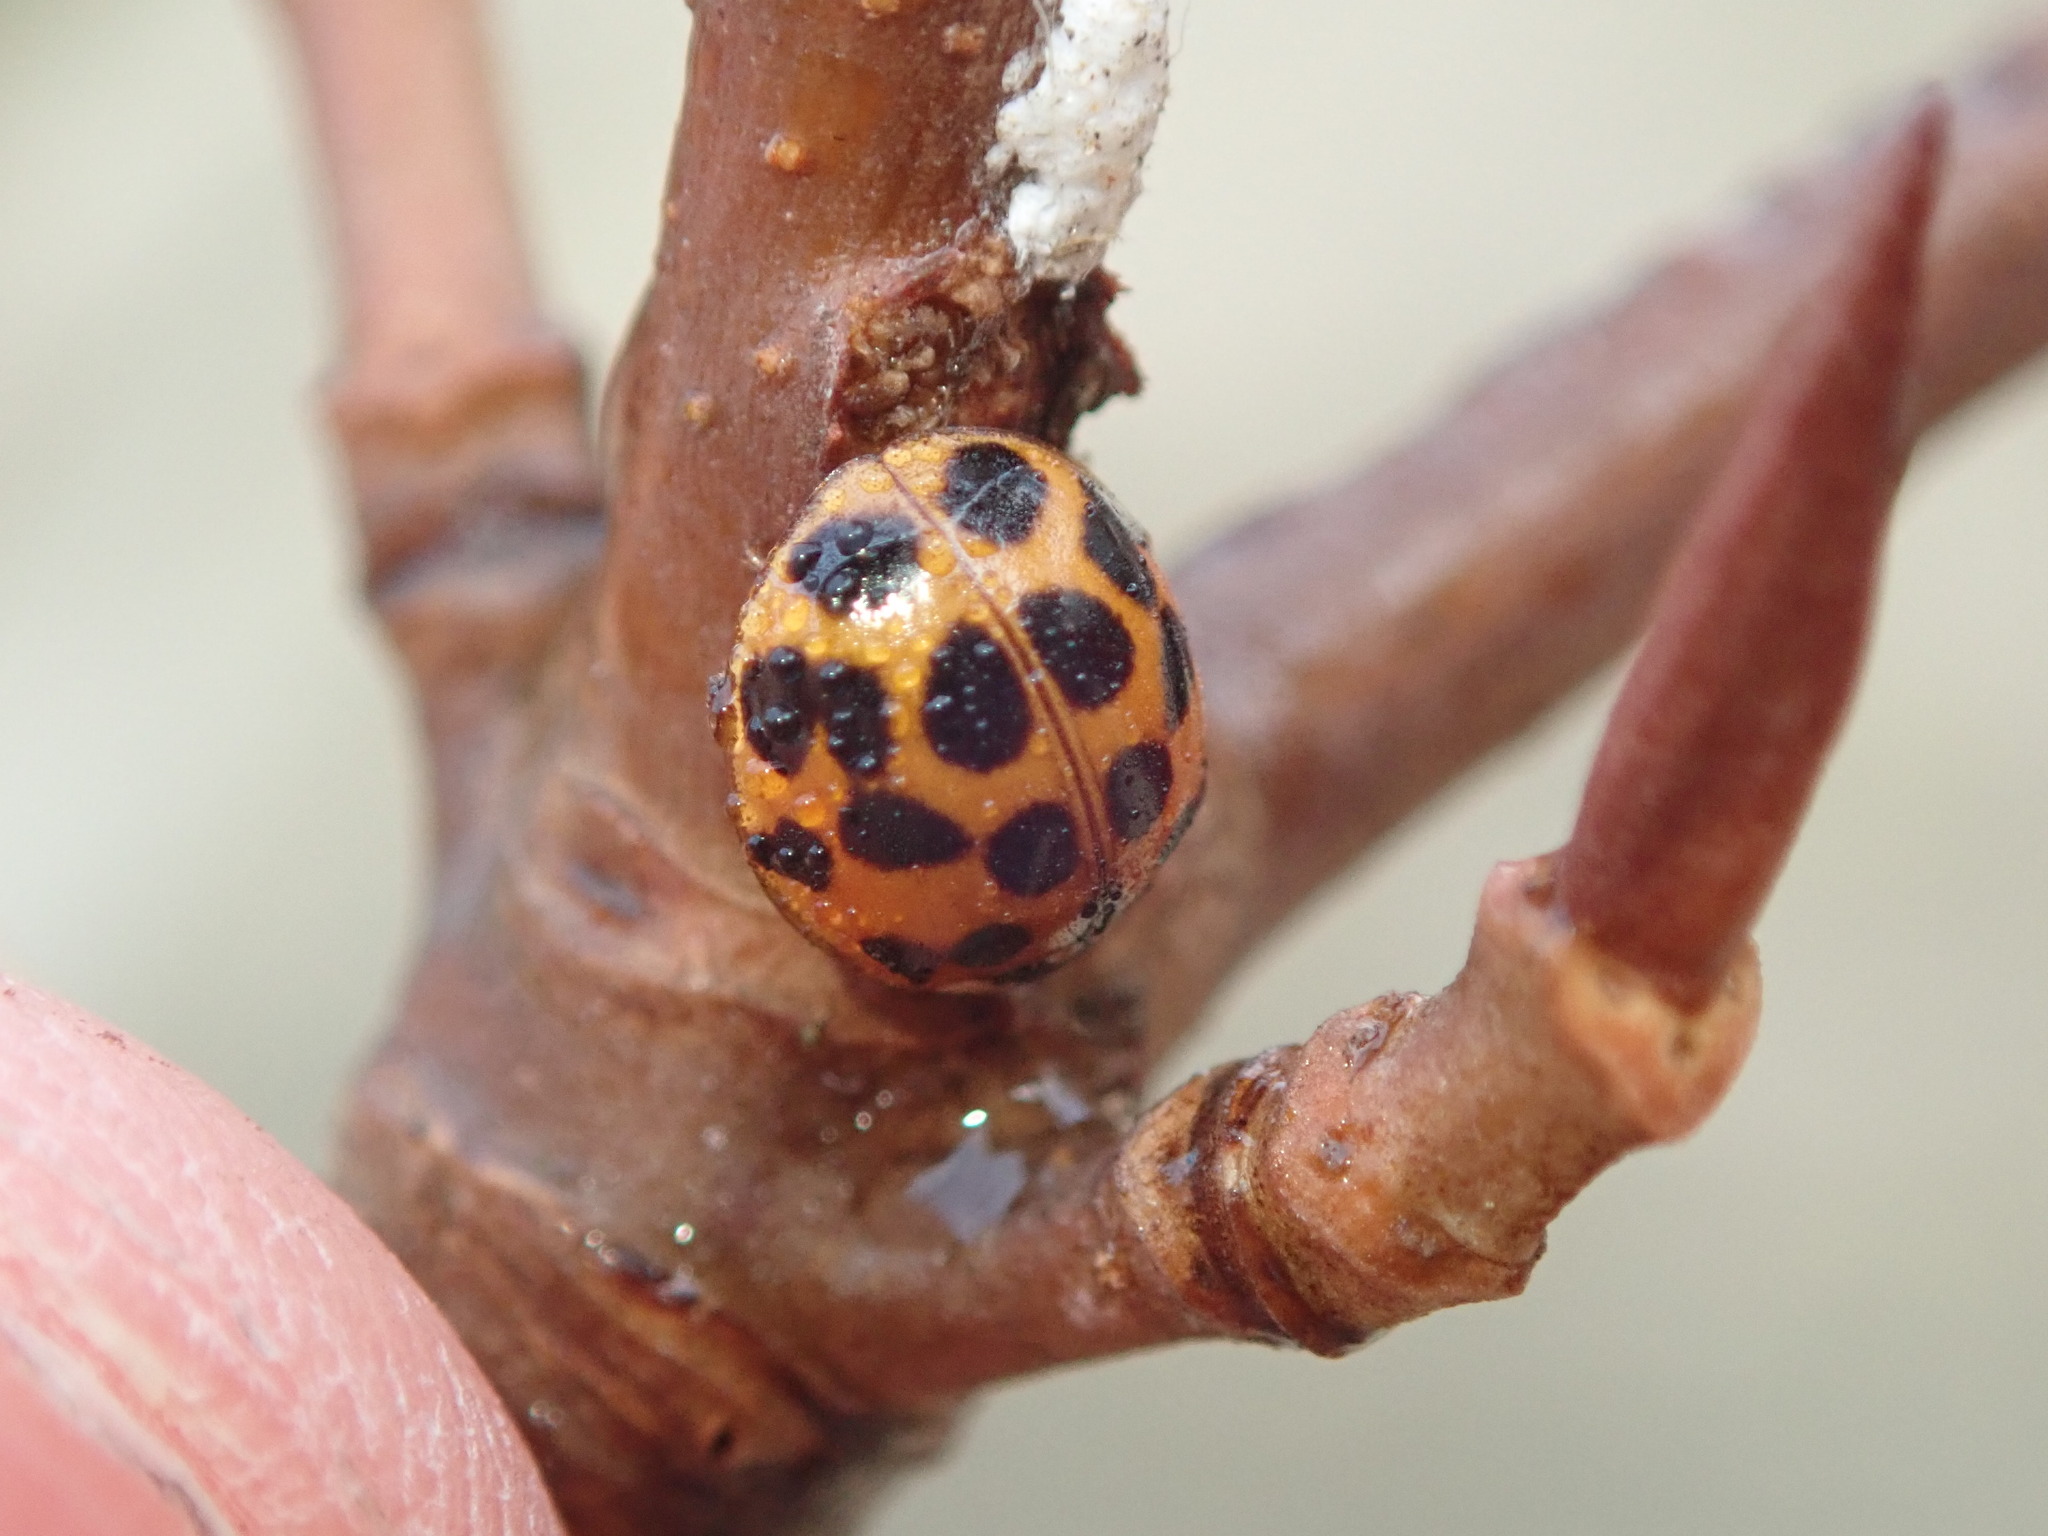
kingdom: Animalia
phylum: Arthropoda
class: Insecta
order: Coleoptera
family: Coccinellidae
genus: Harmonia
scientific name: Harmonia axyridis
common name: Harlequin ladybird
